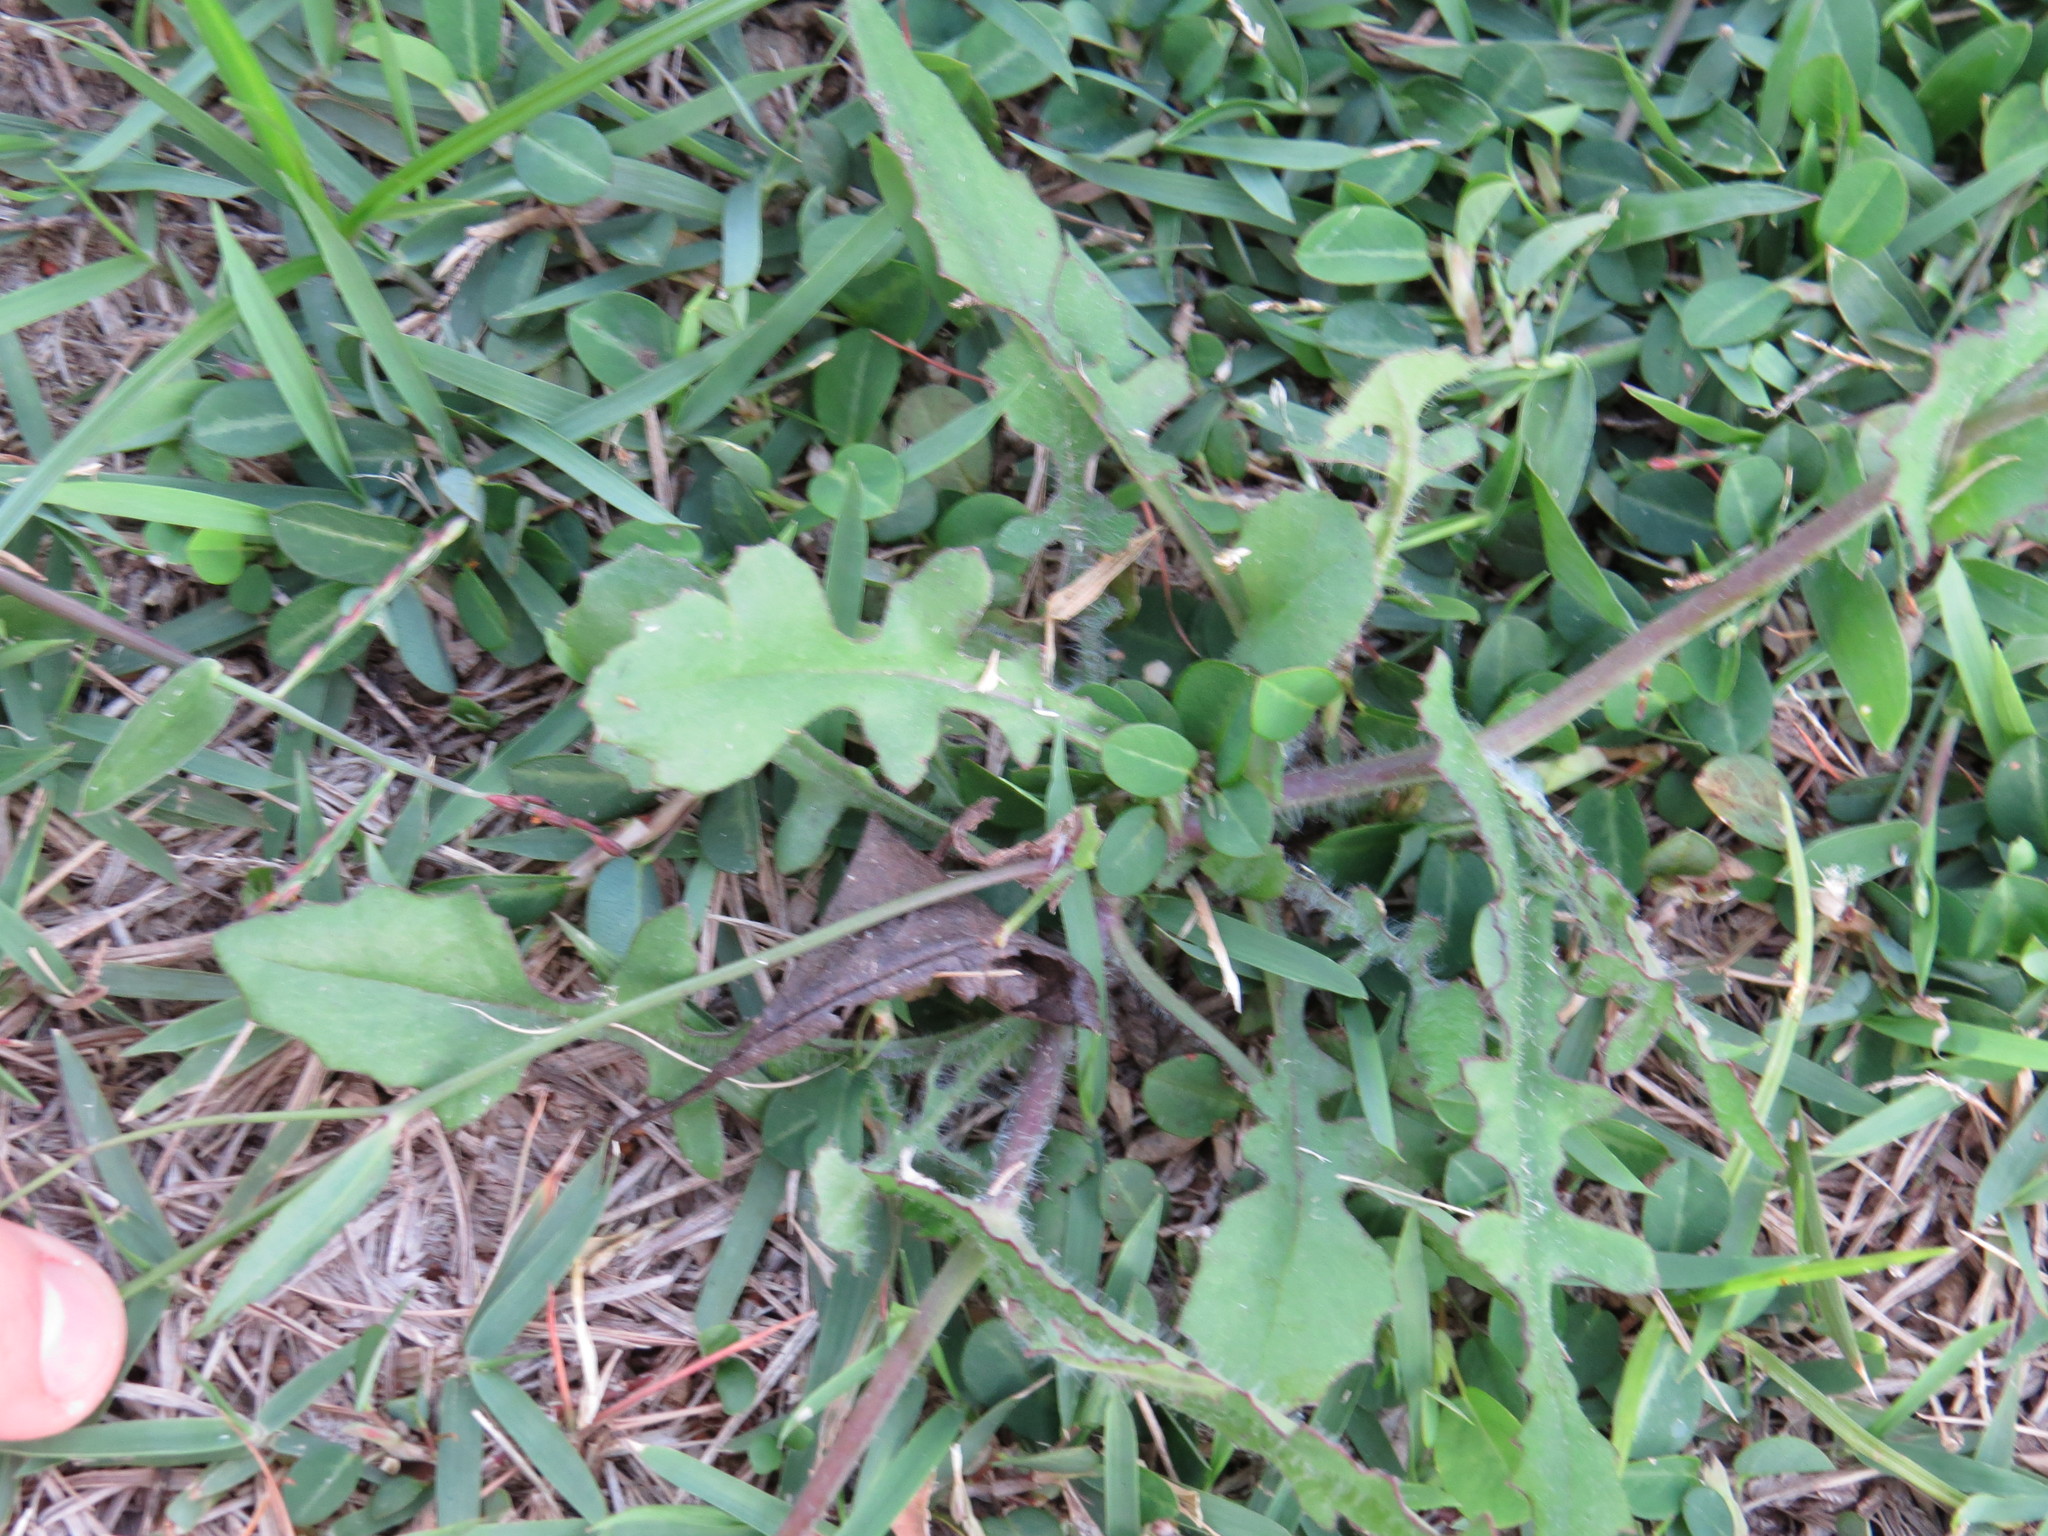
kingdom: Plantae
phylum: Tracheophyta
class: Magnoliopsida
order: Asterales
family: Asteraceae
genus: Emilia
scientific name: Emilia sonchifolia
